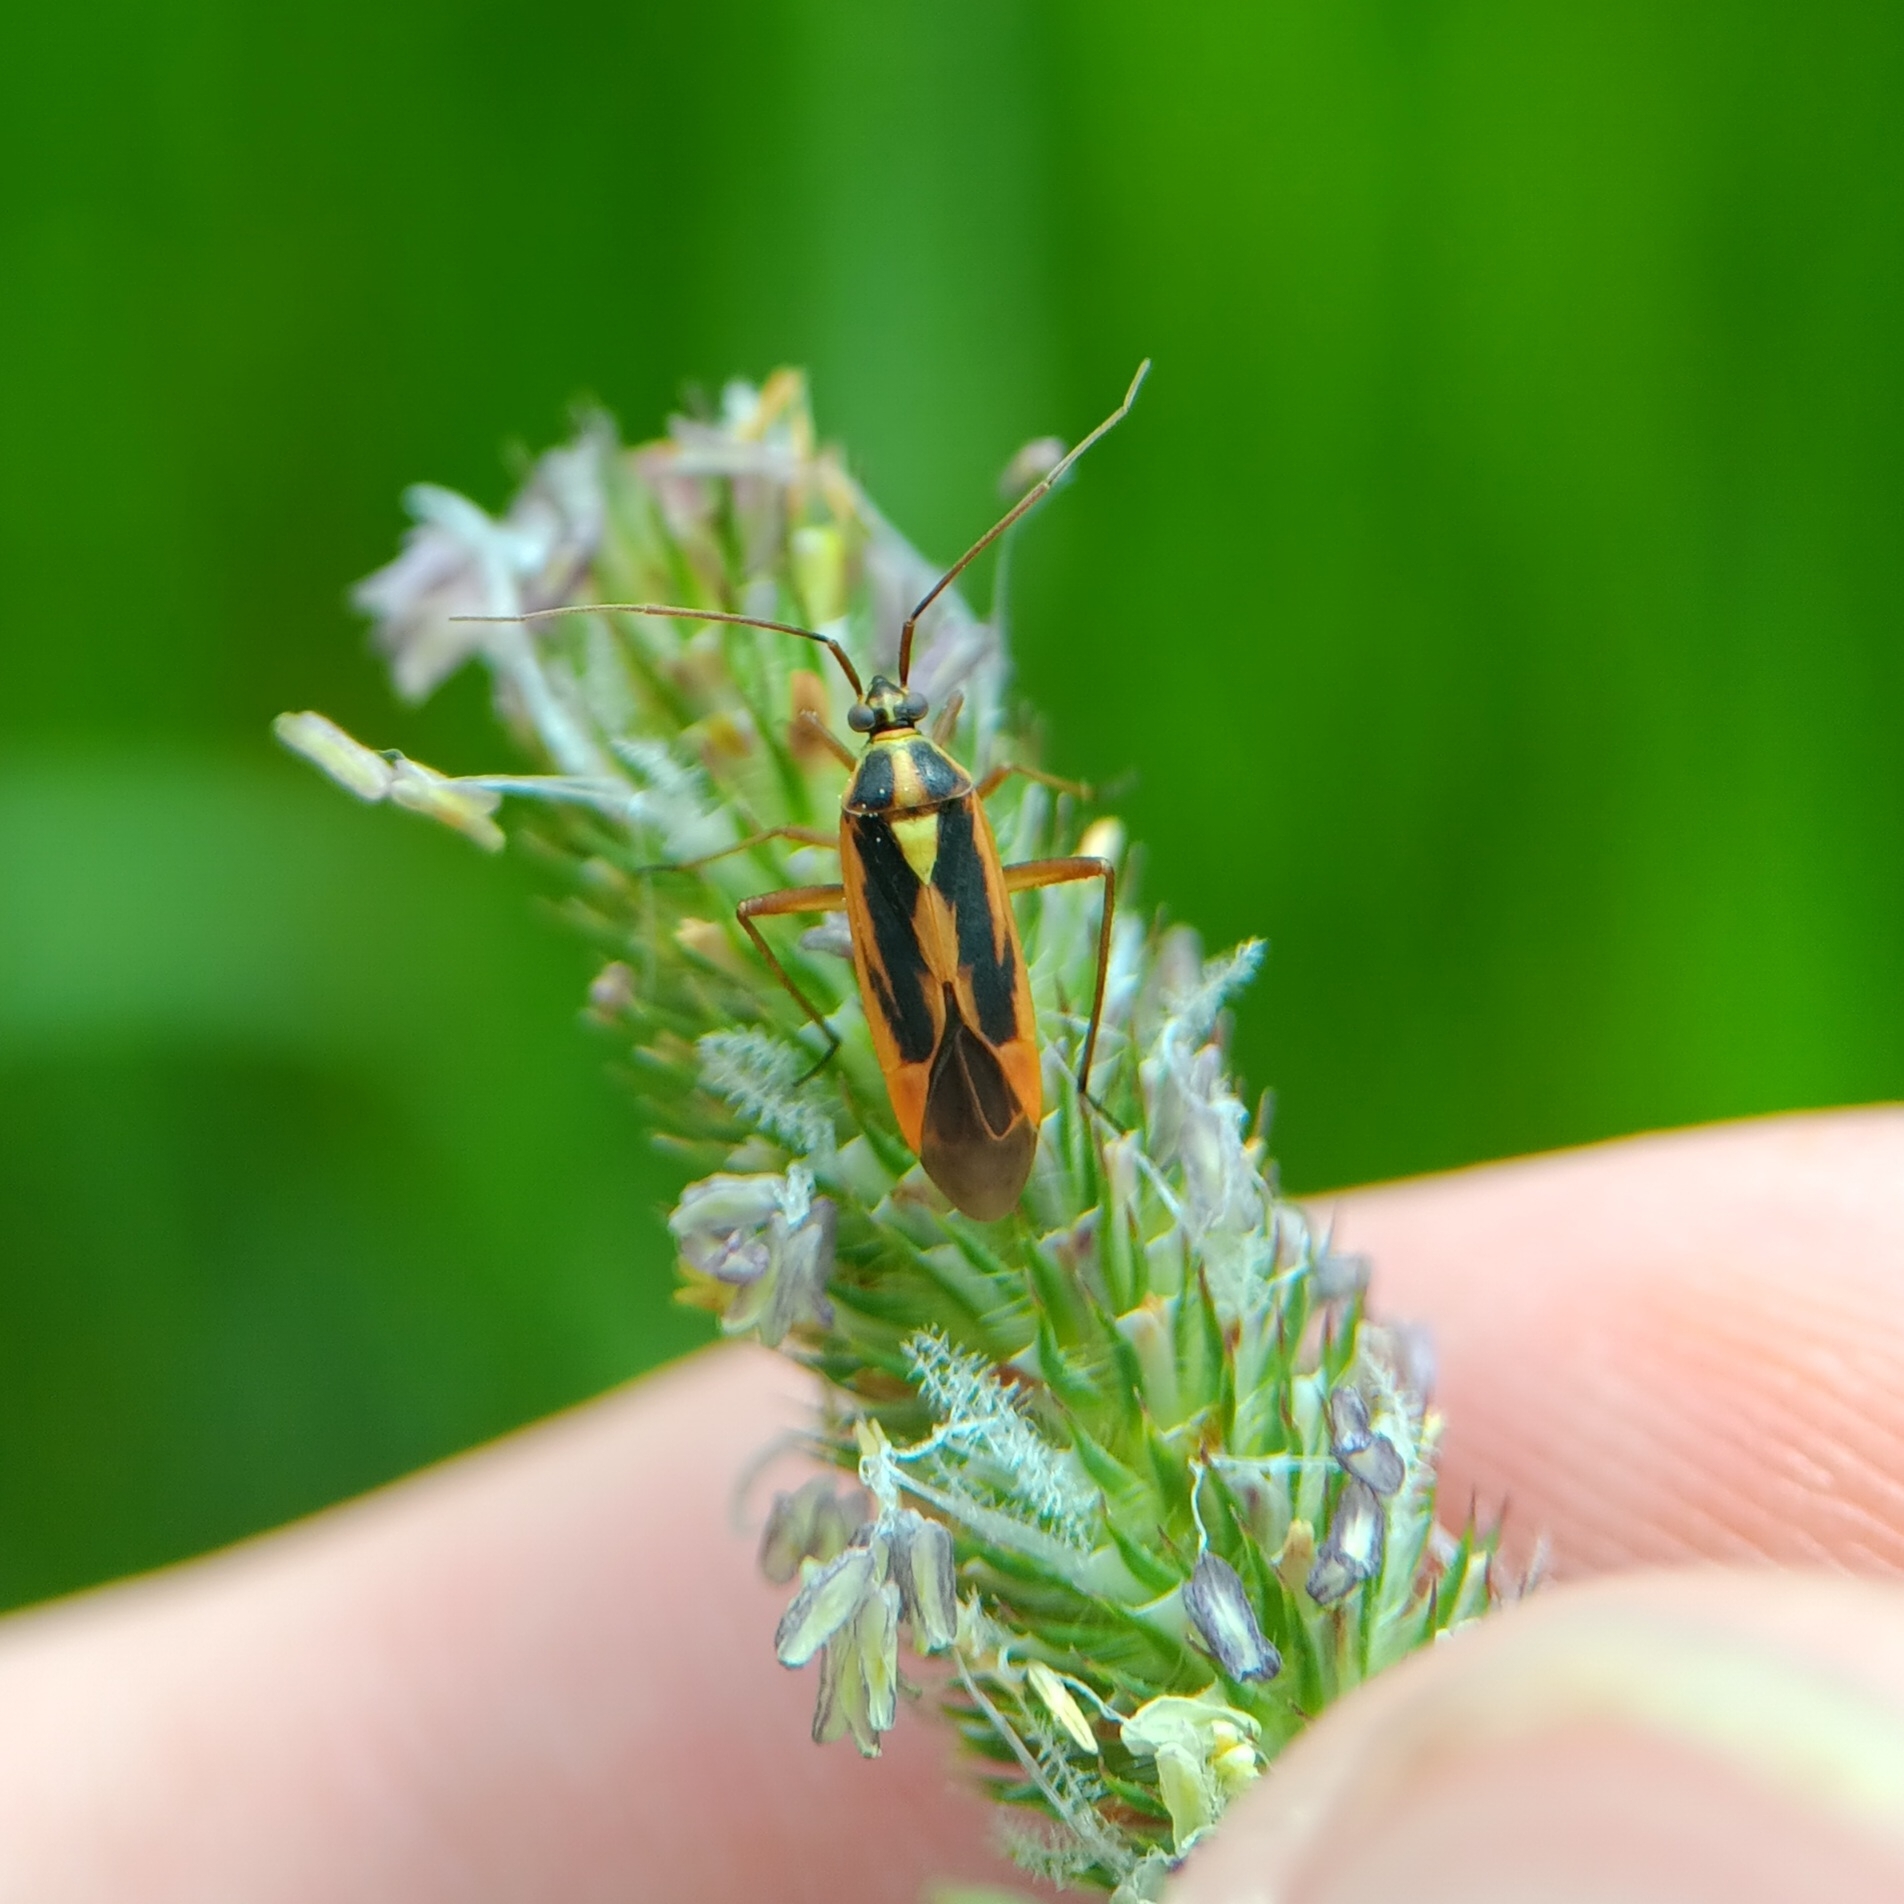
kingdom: Animalia
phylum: Arthropoda
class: Insecta
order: Hemiptera
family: Miridae
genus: Stenotus
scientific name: Stenotus binotatus
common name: Plant bug
